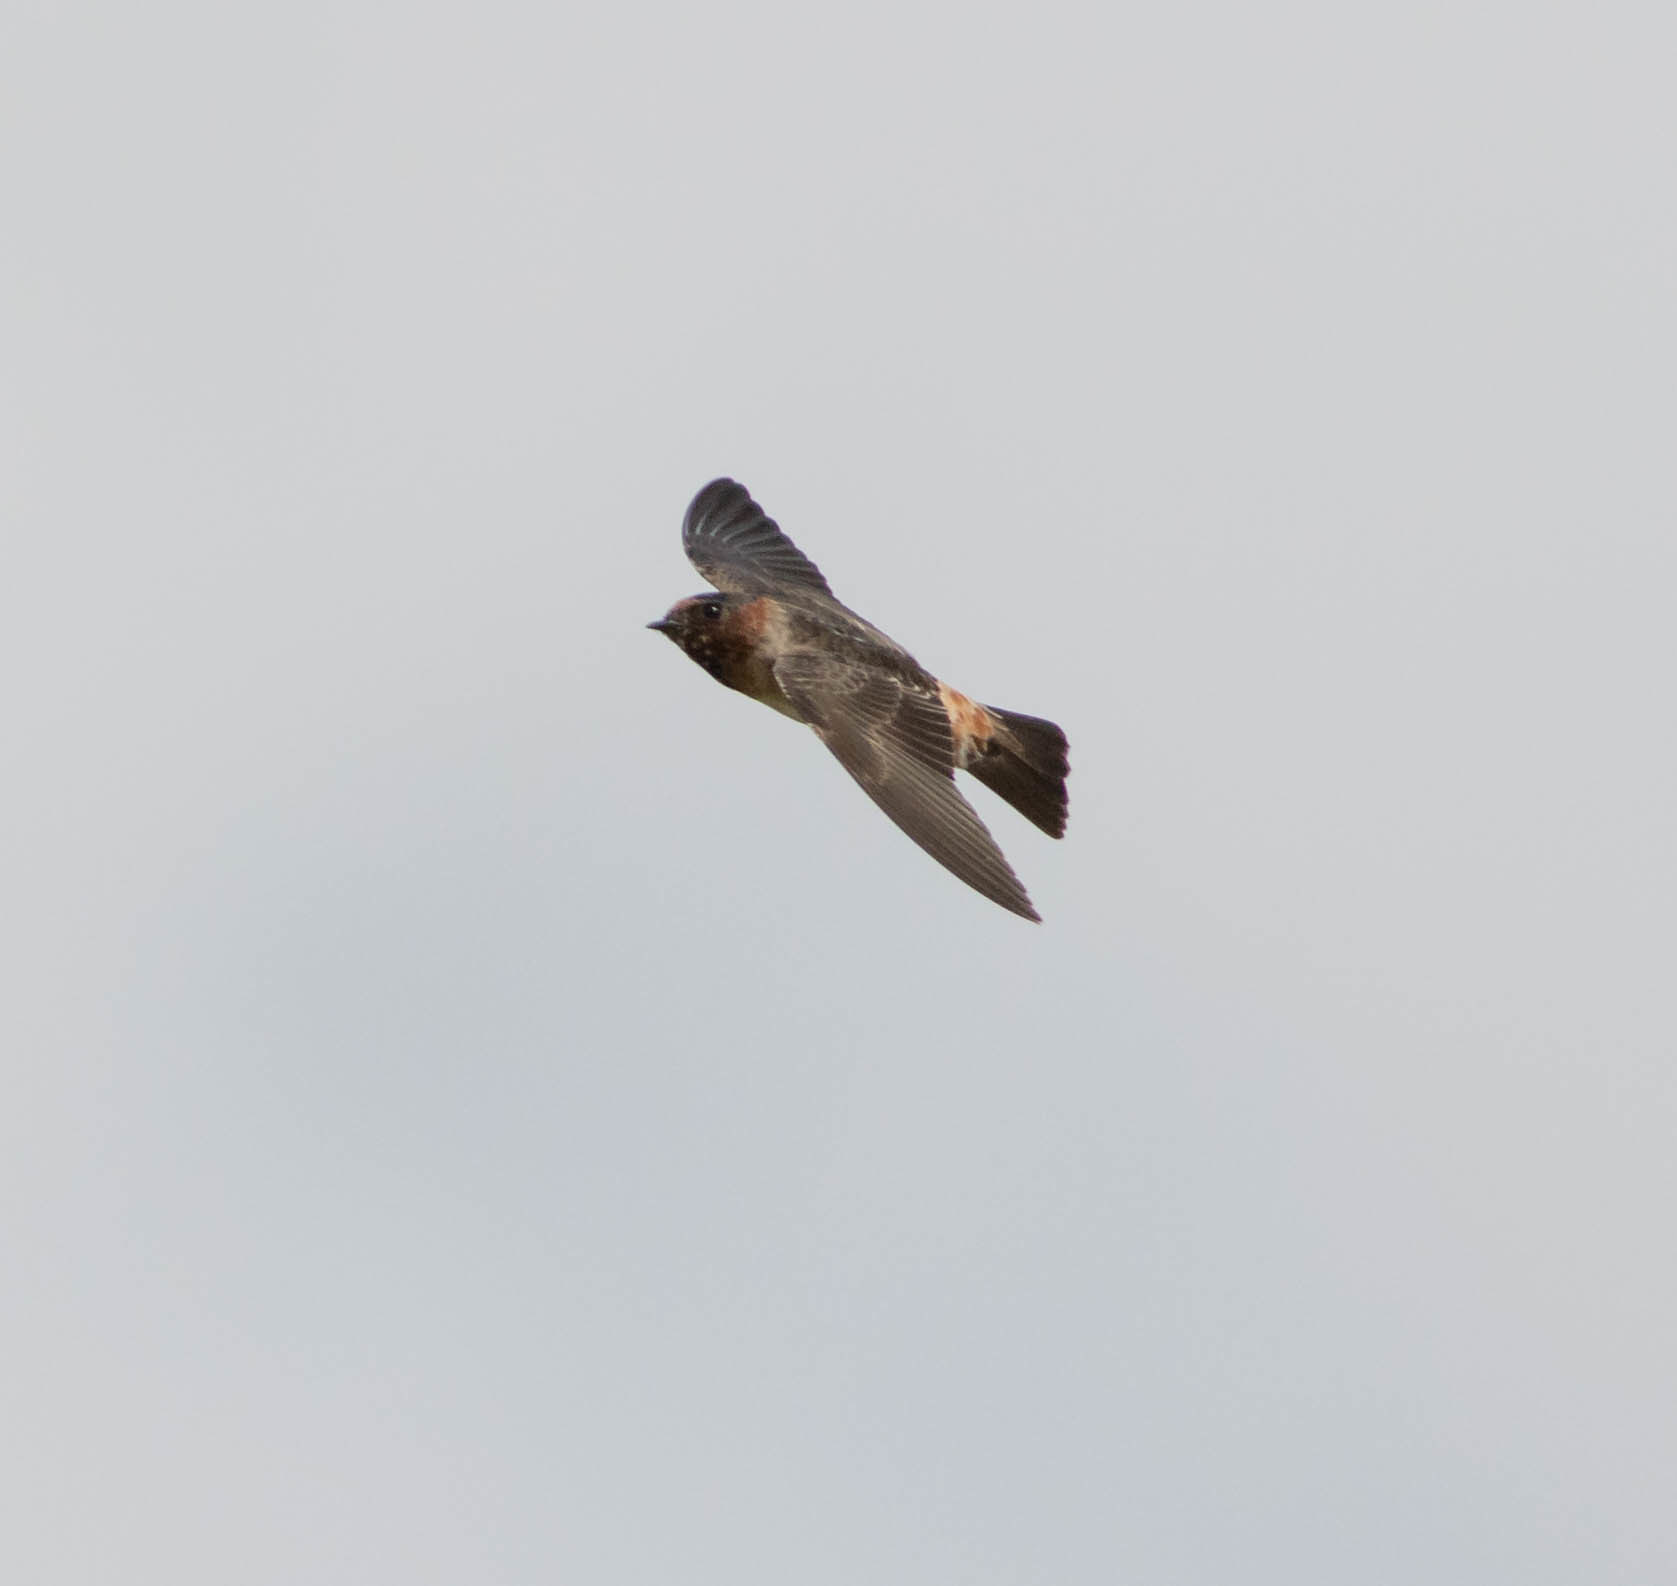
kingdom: Animalia
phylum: Chordata
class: Aves
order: Passeriformes
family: Hirundinidae
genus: Petrochelidon
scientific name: Petrochelidon pyrrhonota
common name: American cliff swallow
